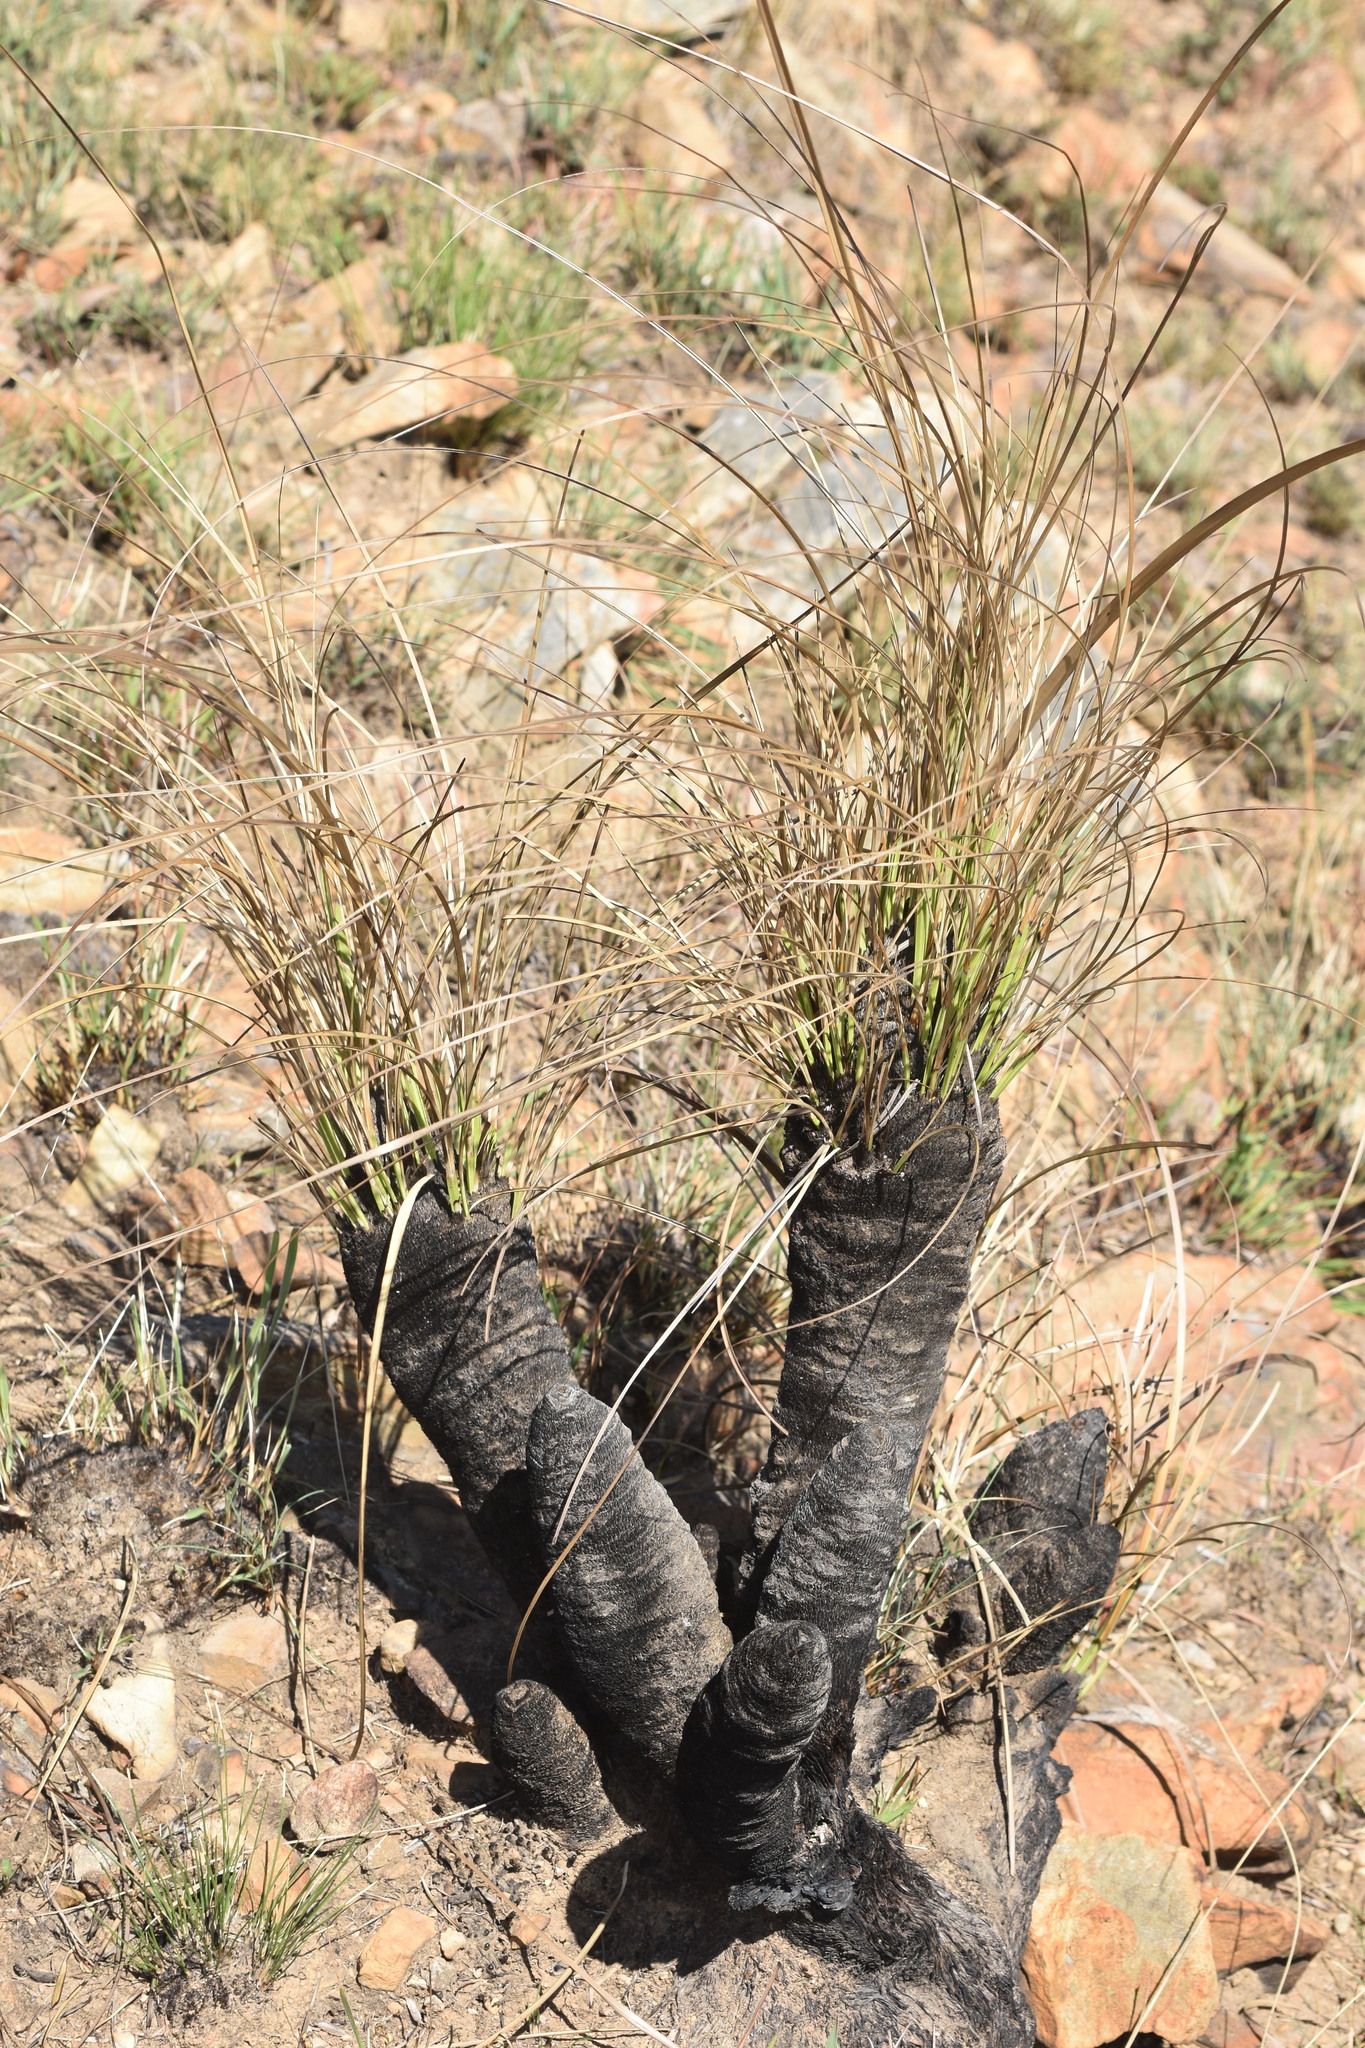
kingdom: Plantae
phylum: Tracheophyta
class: Liliopsida
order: Pandanales
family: Velloziaceae
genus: Xerophyta
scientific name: Xerophyta retinervis
